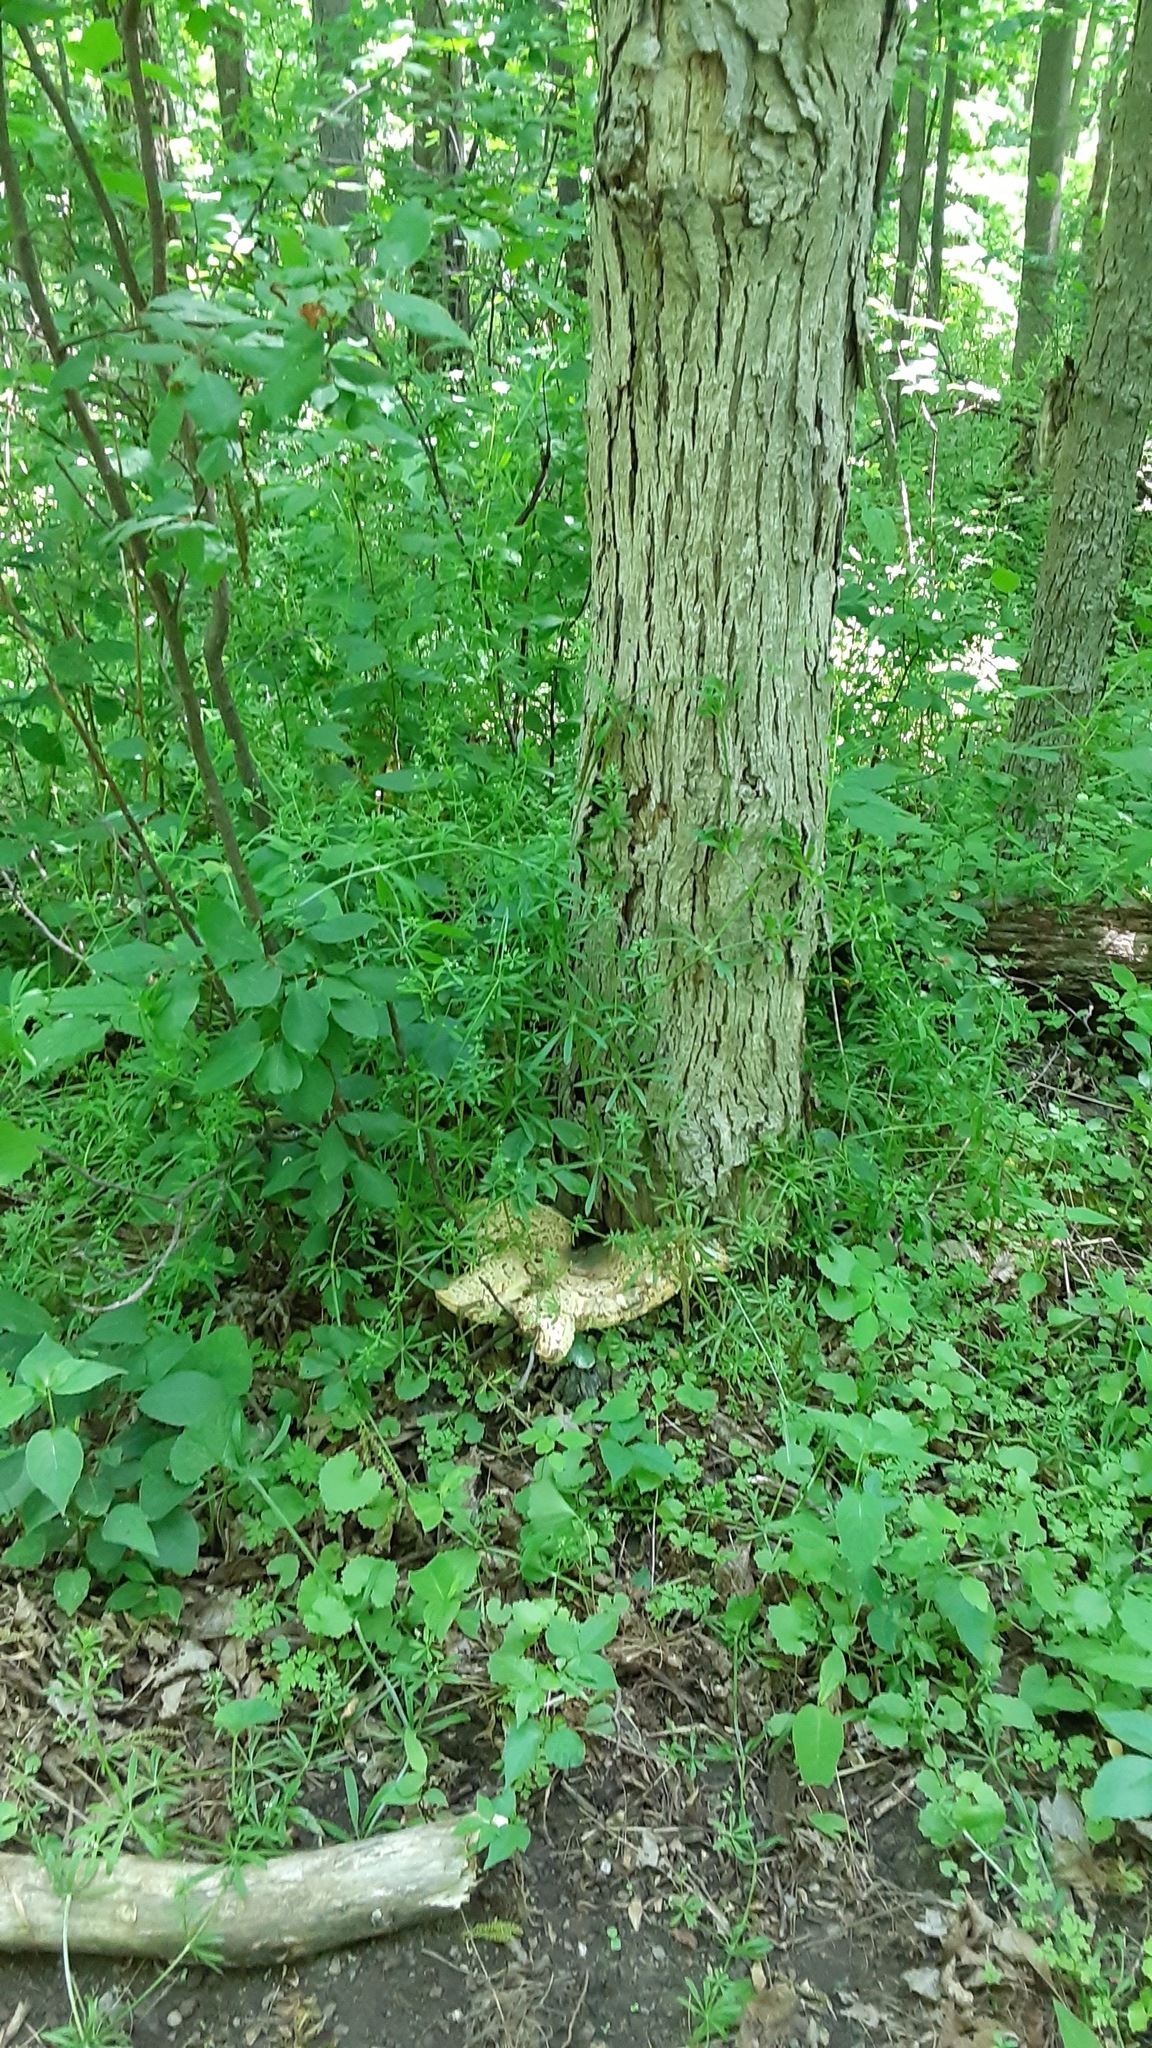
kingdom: Fungi
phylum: Basidiomycota
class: Agaricomycetes
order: Polyporales
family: Polyporaceae
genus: Cerioporus
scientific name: Cerioporus squamosus
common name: Dryad's saddle
